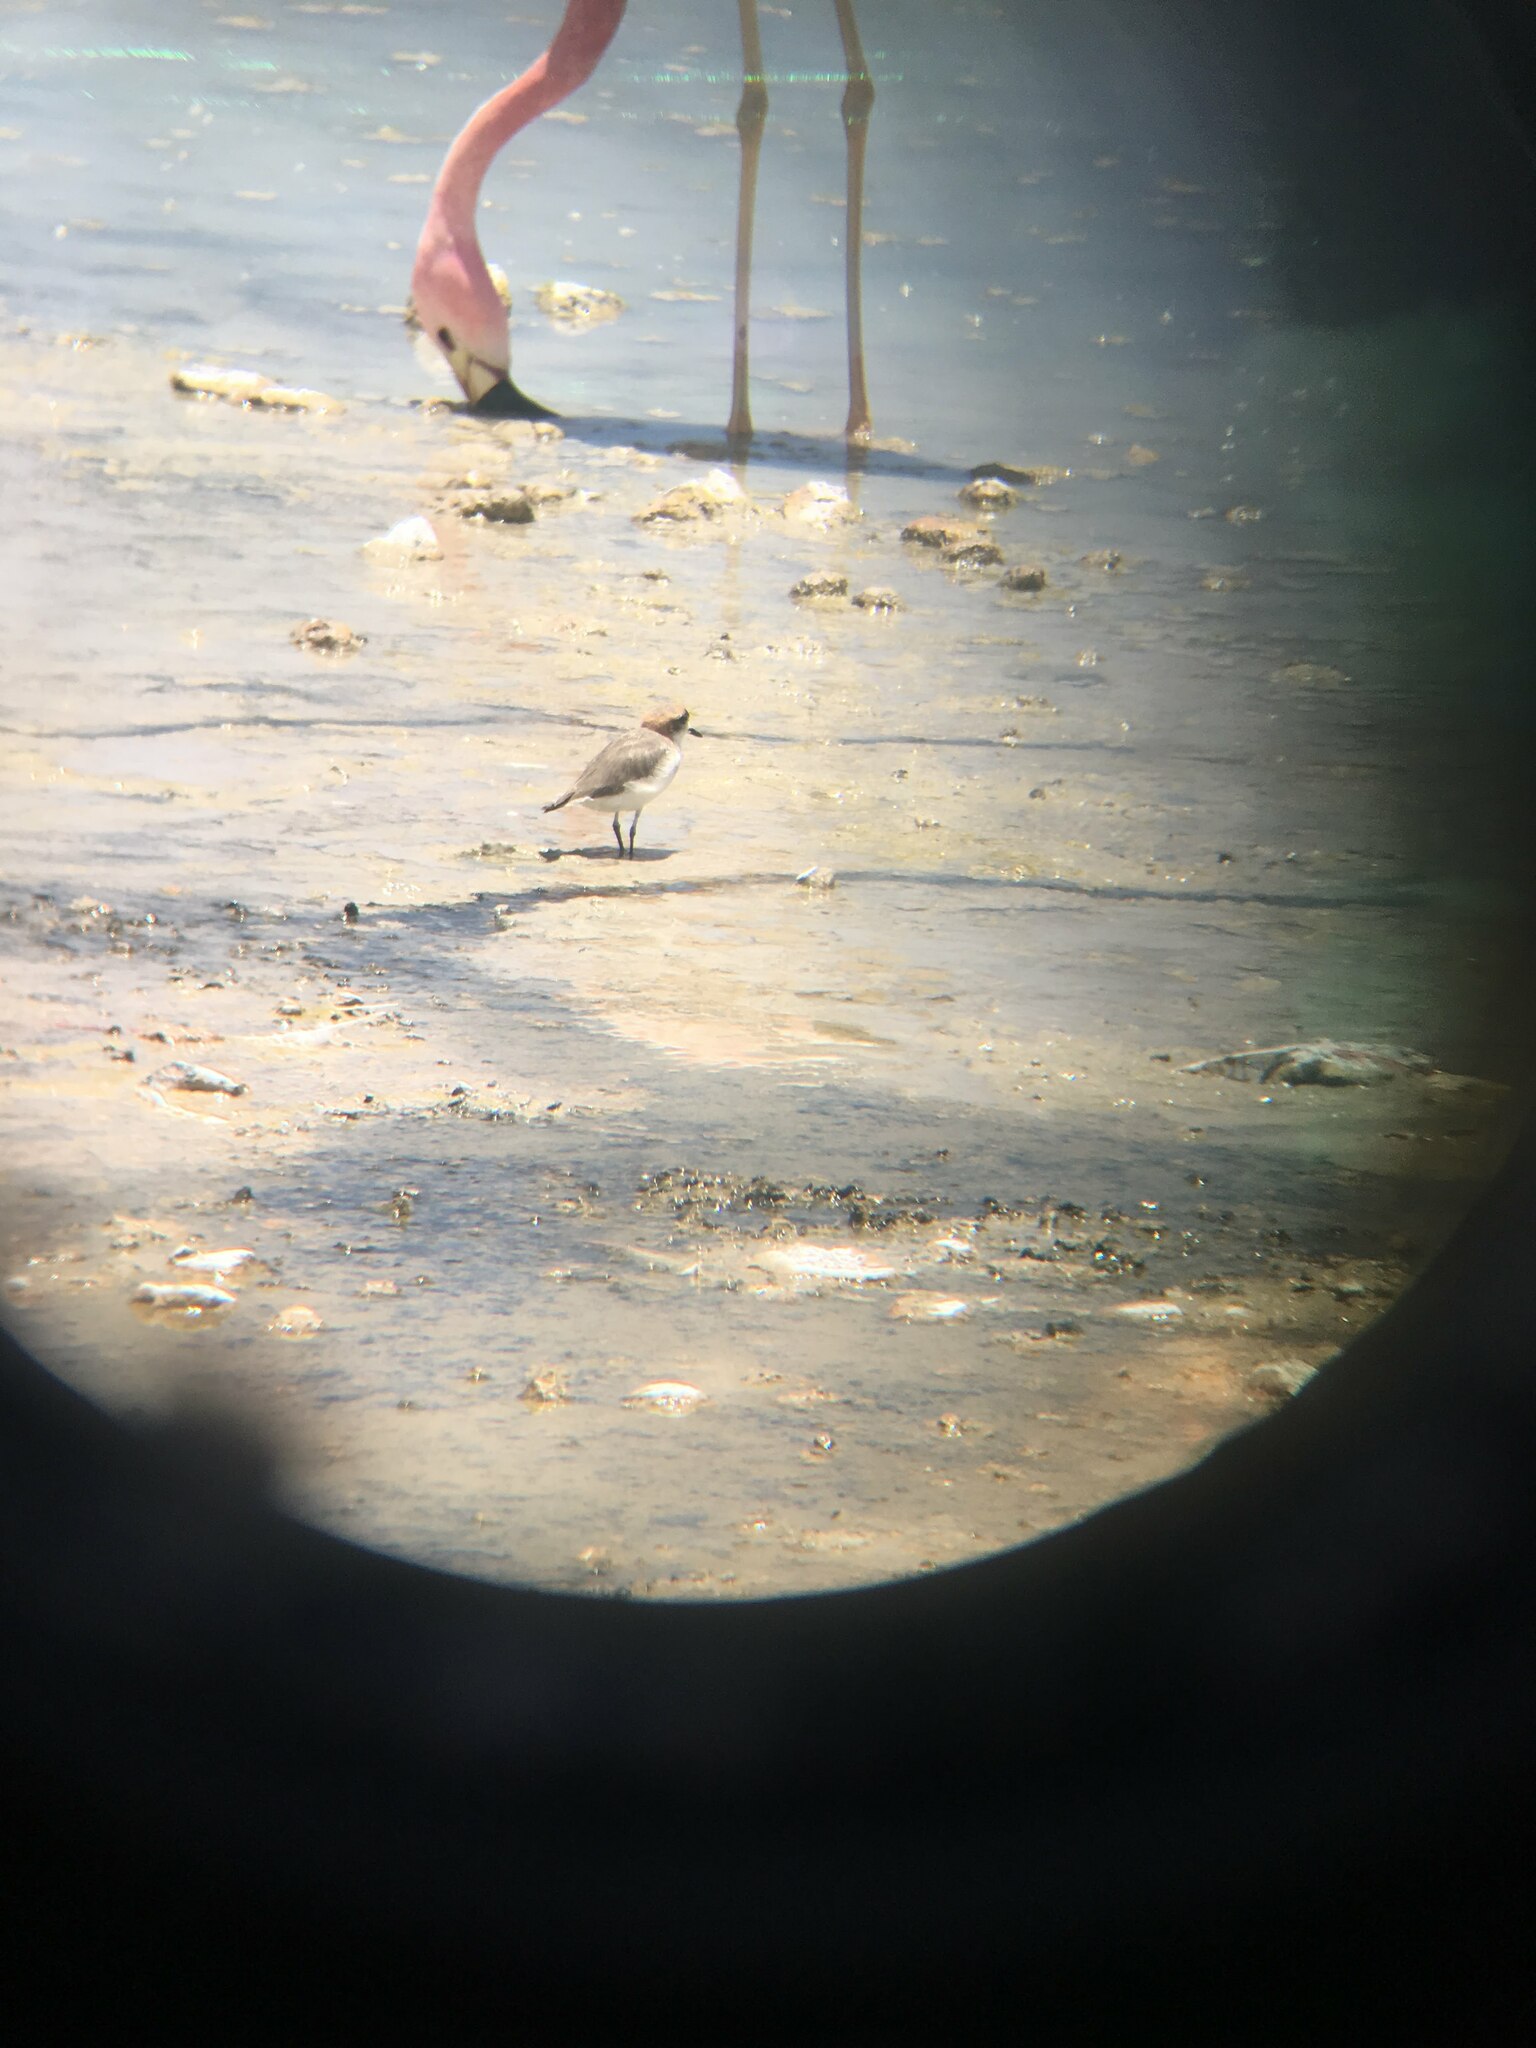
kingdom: Animalia
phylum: Chordata
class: Aves
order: Charadriiformes
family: Charadriidae
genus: Anarhynchus
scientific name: Anarhynchus
